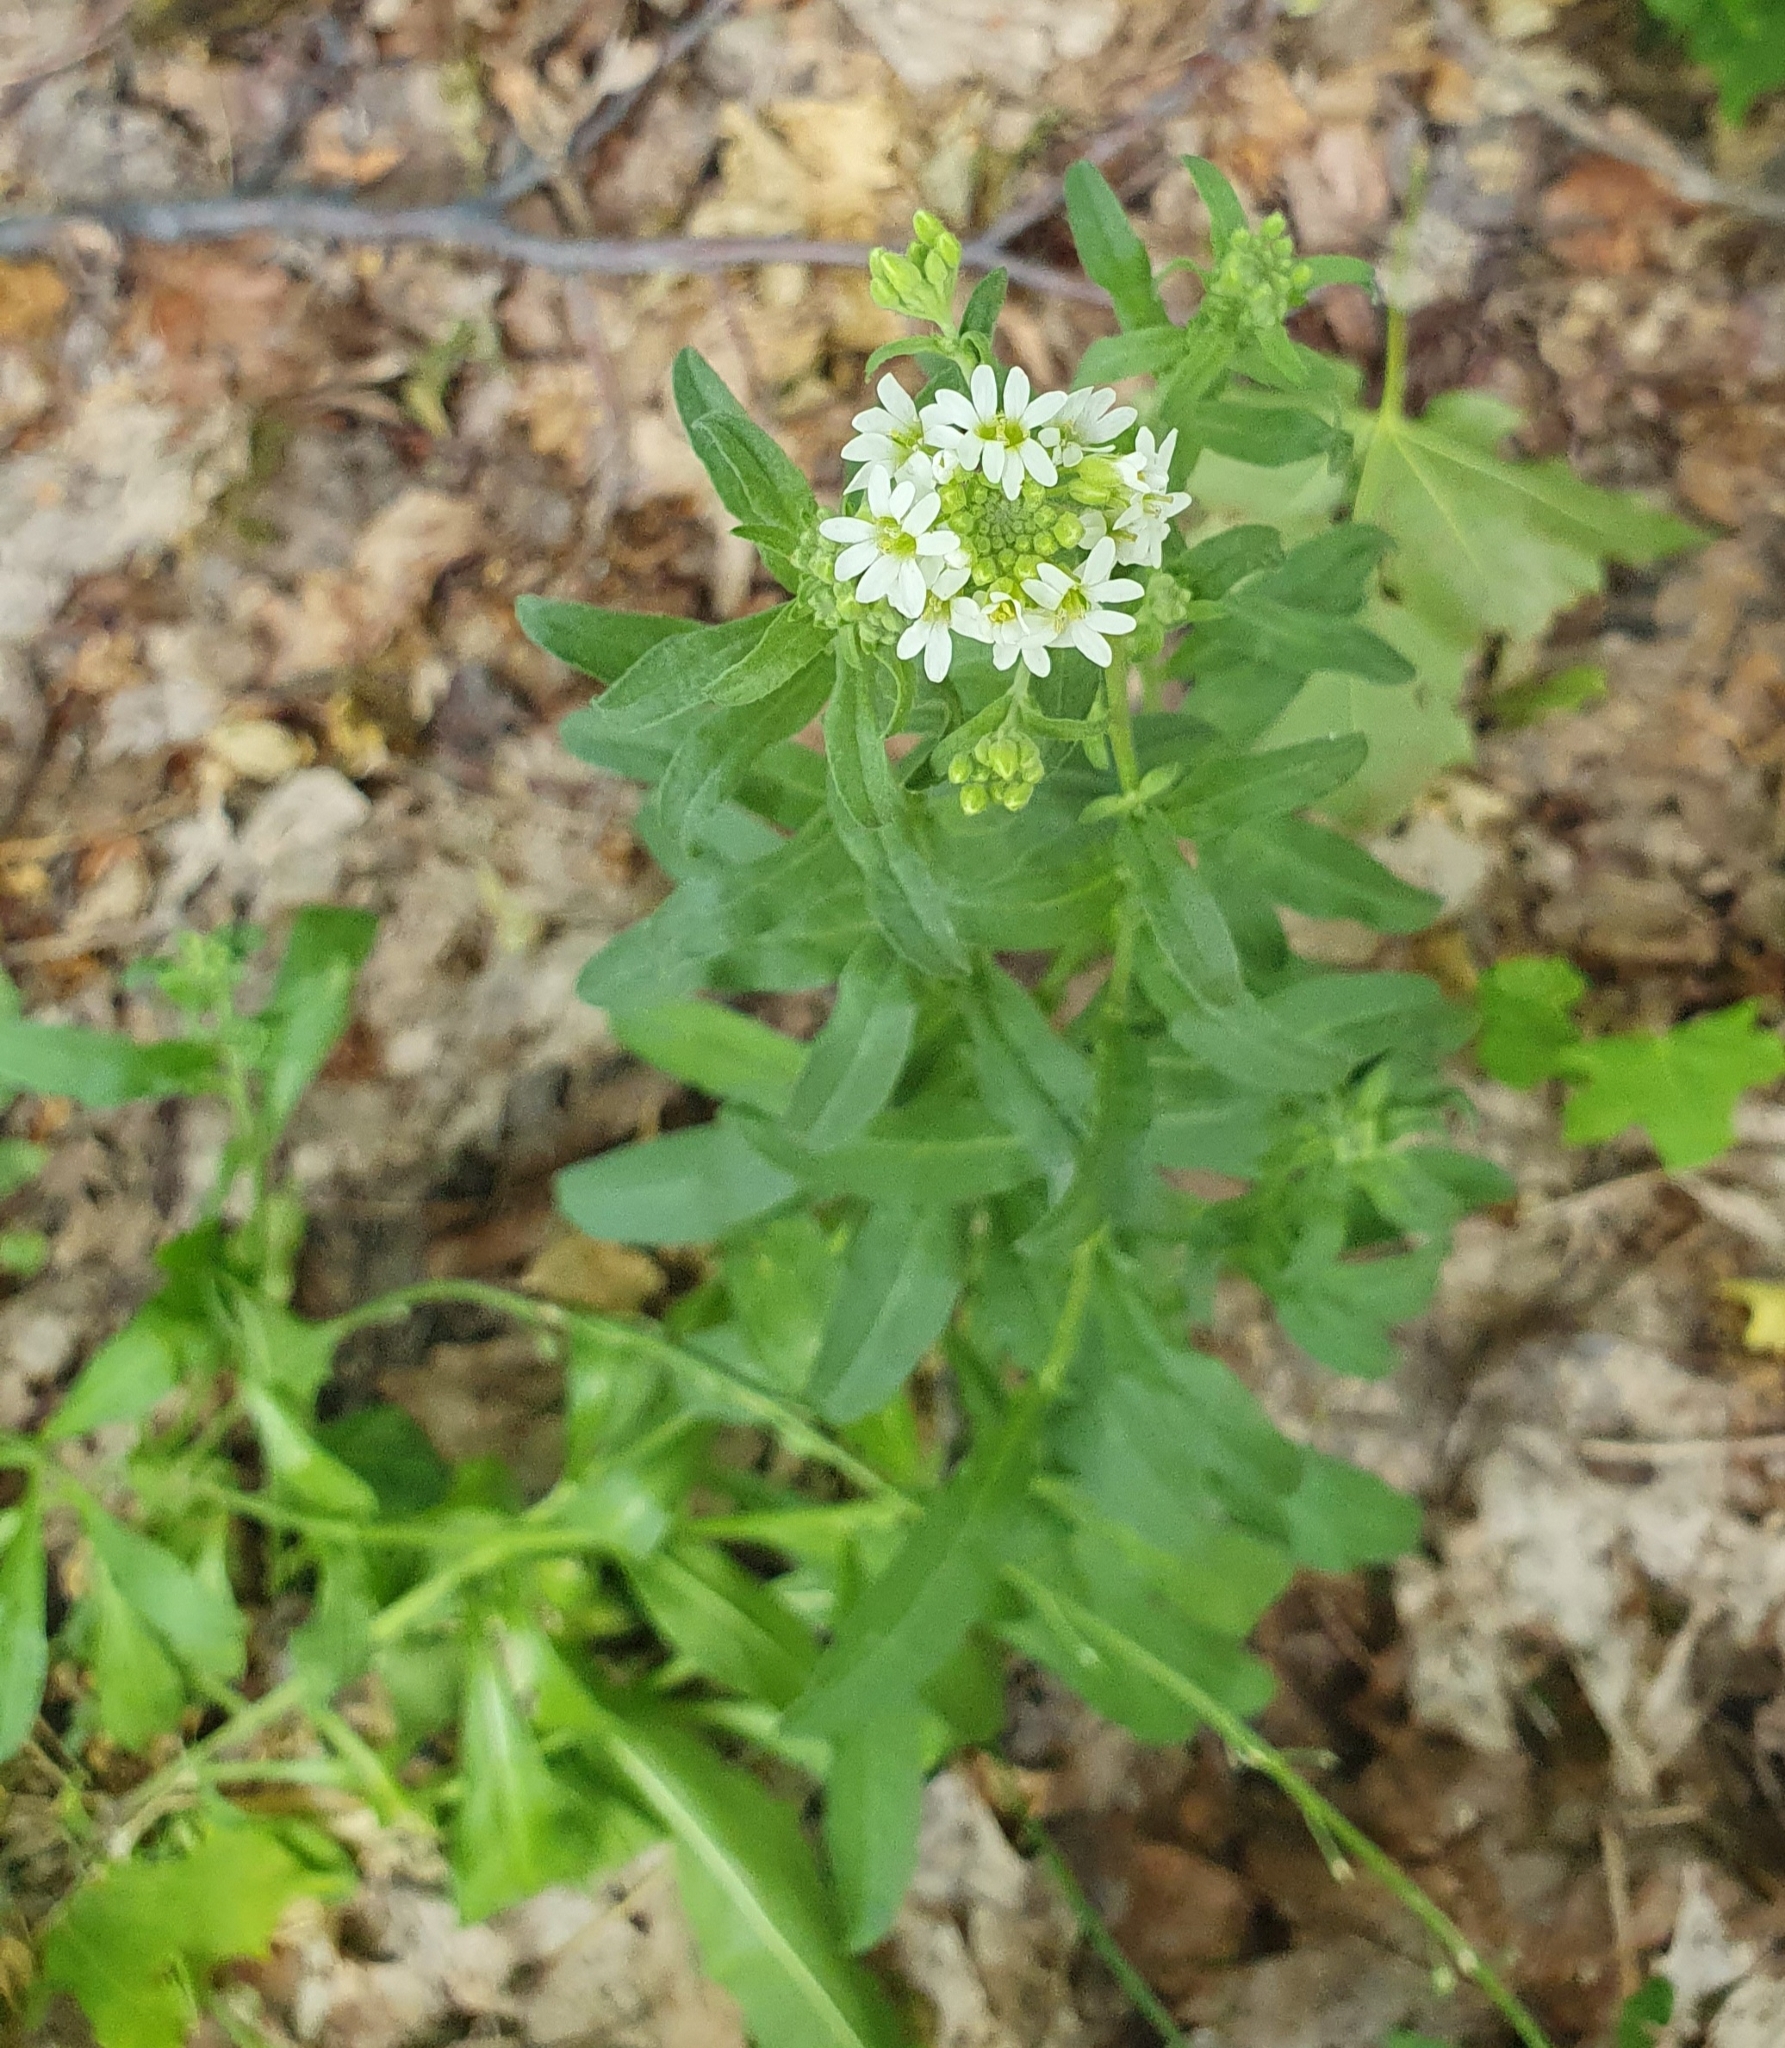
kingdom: Plantae
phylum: Tracheophyta
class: Magnoliopsida
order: Brassicales
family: Brassicaceae
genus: Berteroa
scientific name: Berteroa incana
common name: Hoary alison
